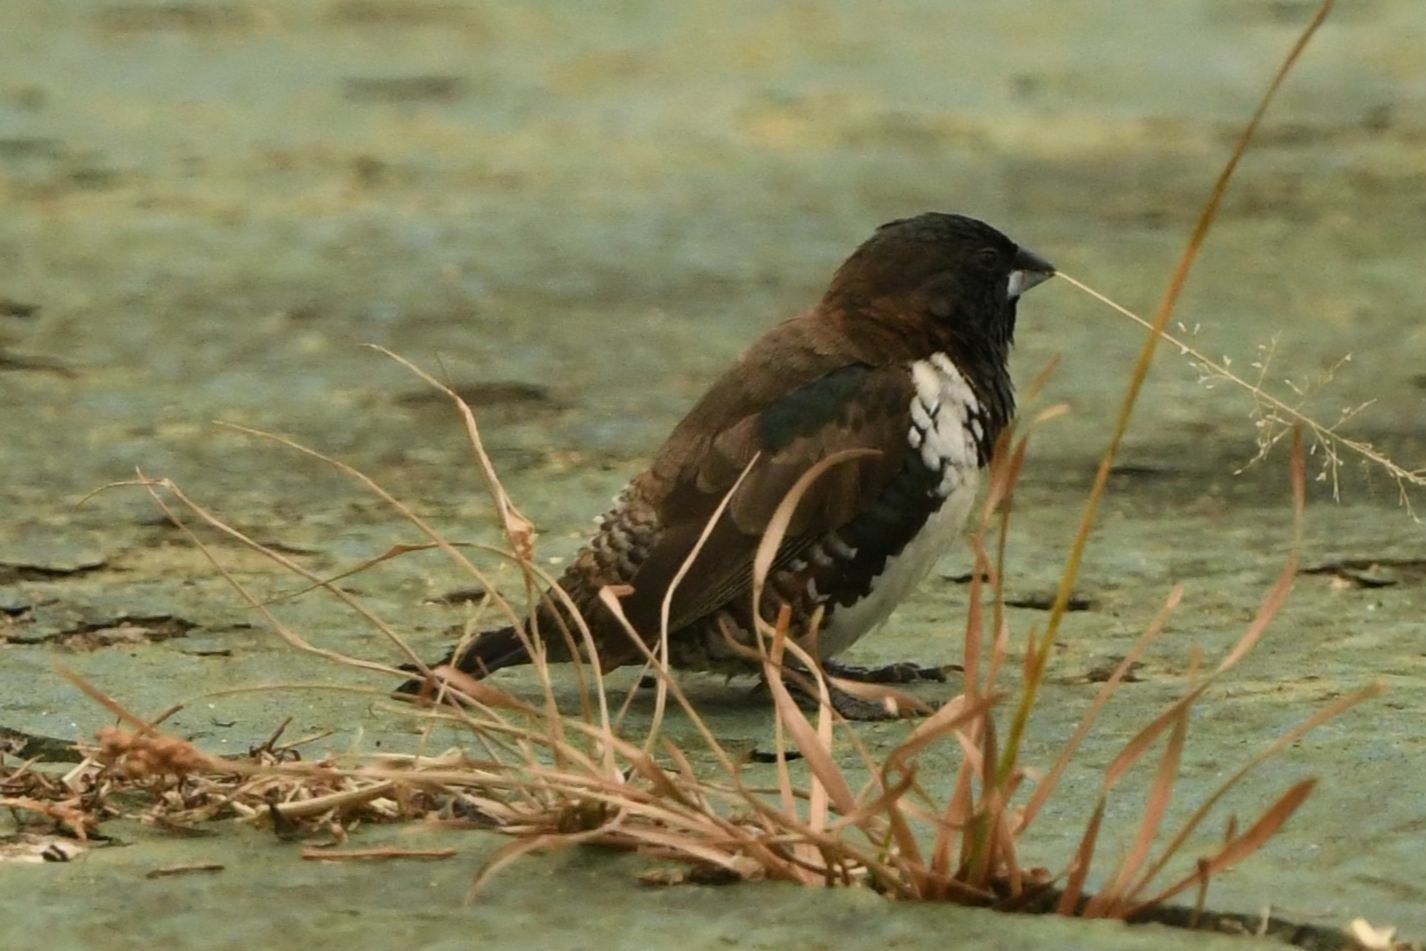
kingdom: Animalia
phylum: Chordata
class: Aves
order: Passeriformes
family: Estrildidae
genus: Lonchura
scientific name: Lonchura cucullata
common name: Bronze mannikin
